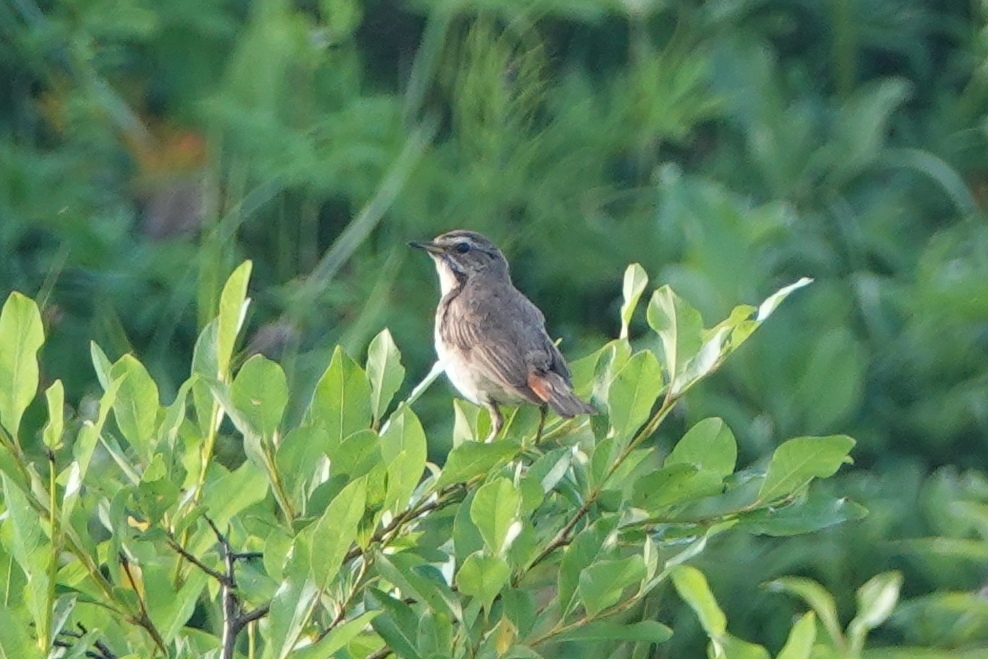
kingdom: Animalia
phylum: Chordata
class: Aves
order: Passeriformes
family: Muscicapidae
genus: Luscinia
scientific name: Luscinia svecica
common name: Bluethroat
